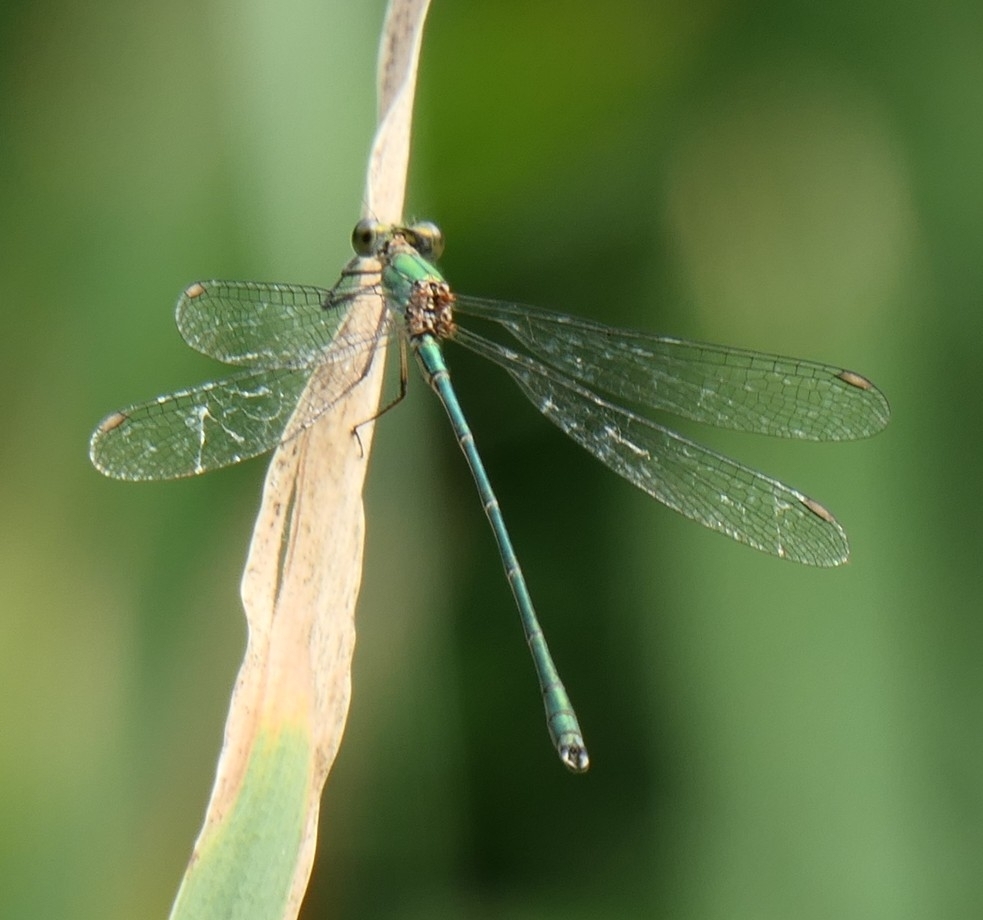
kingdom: Animalia
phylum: Arthropoda
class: Insecta
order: Odonata
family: Lestidae
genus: Chalcolestes
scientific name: Chalcolestes viridis
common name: Green emerald damselfly
